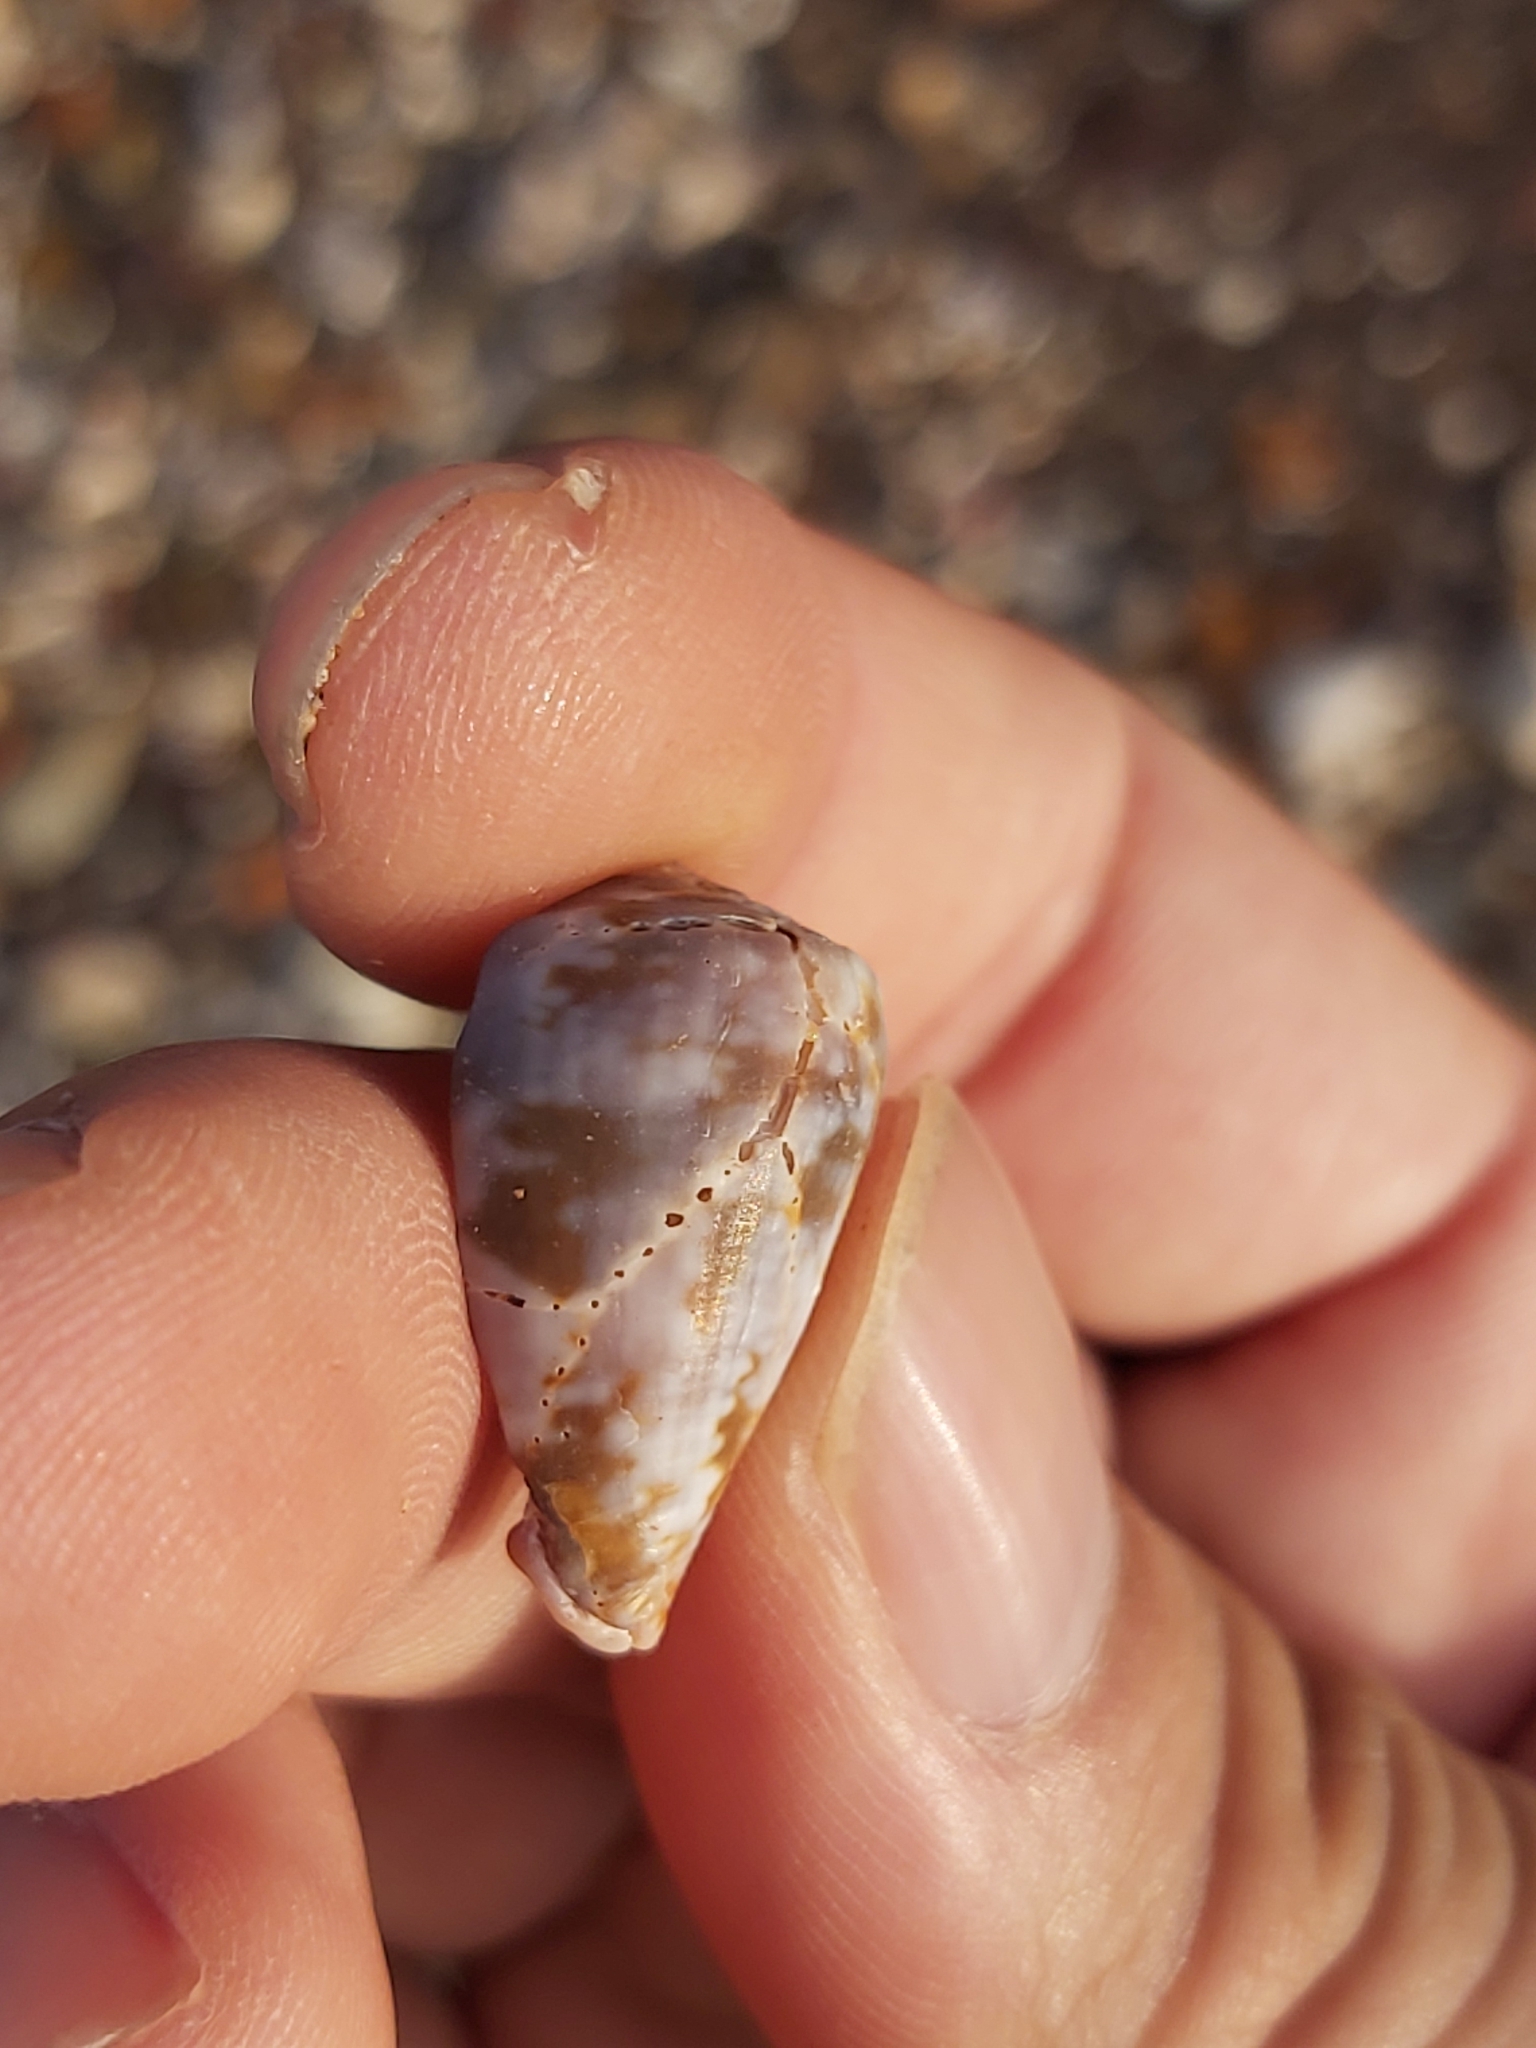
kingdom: Animalia
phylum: Mollusca
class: Gastropoda
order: Neogastropoda
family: Conidae
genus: Conus
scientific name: Conus papilliferus
